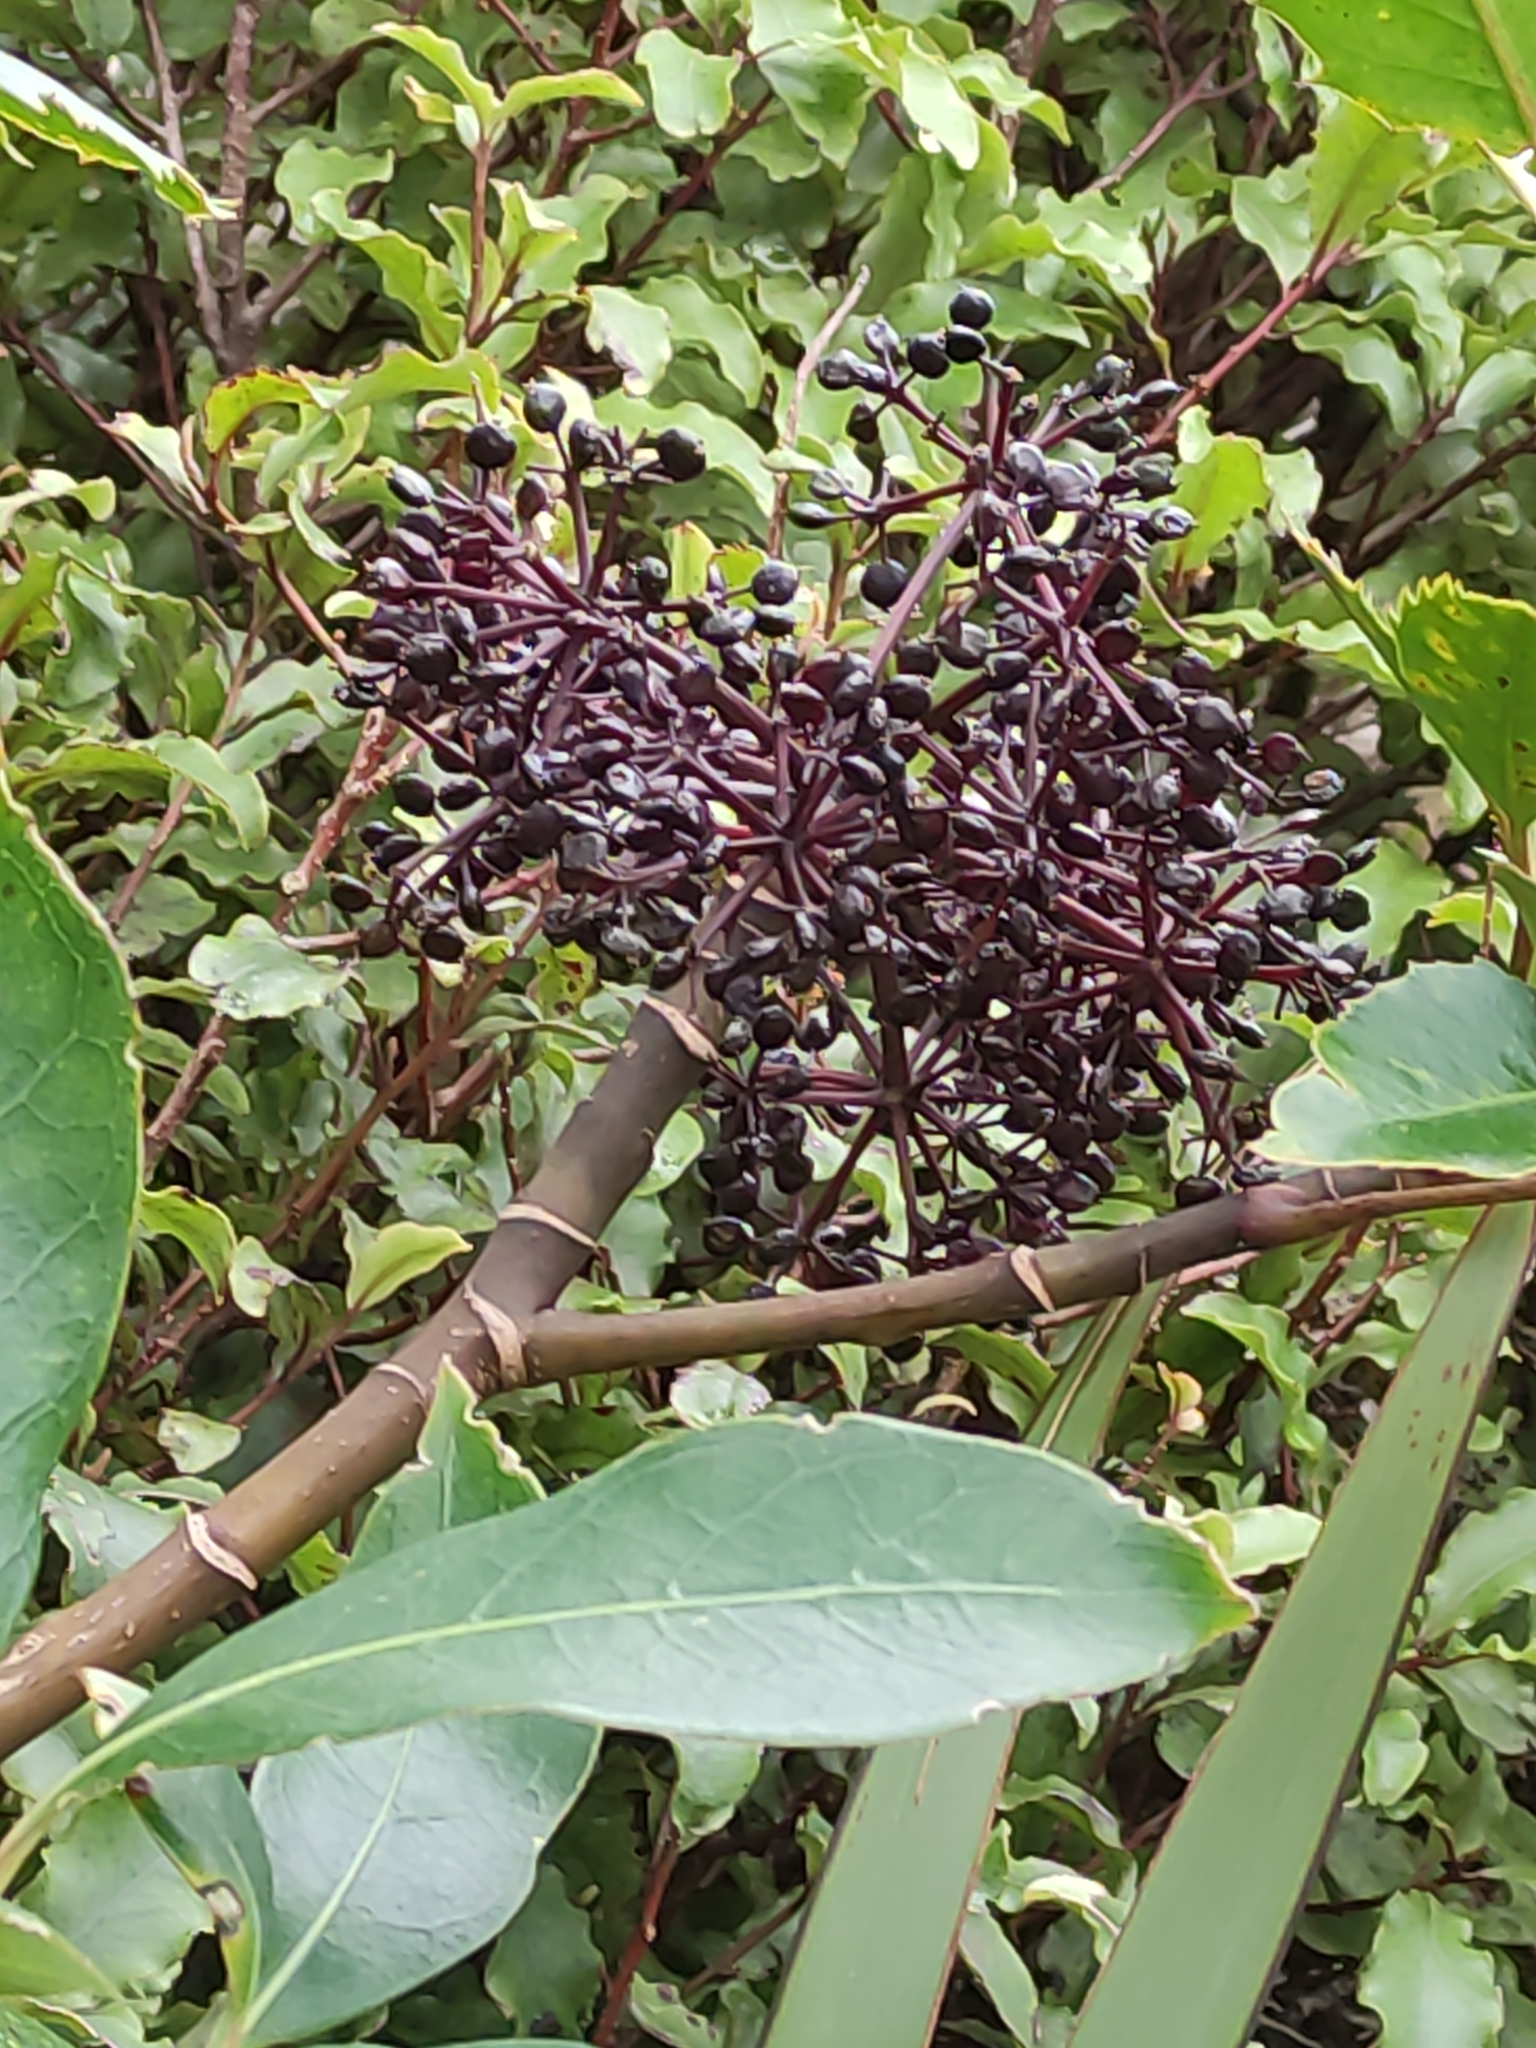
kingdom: Plantae
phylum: Tracheophyta
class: Magnoliopsida
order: Apiales
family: Araliaceae
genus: Neopanax
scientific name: Neopanax arboreus
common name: Five-fingers
